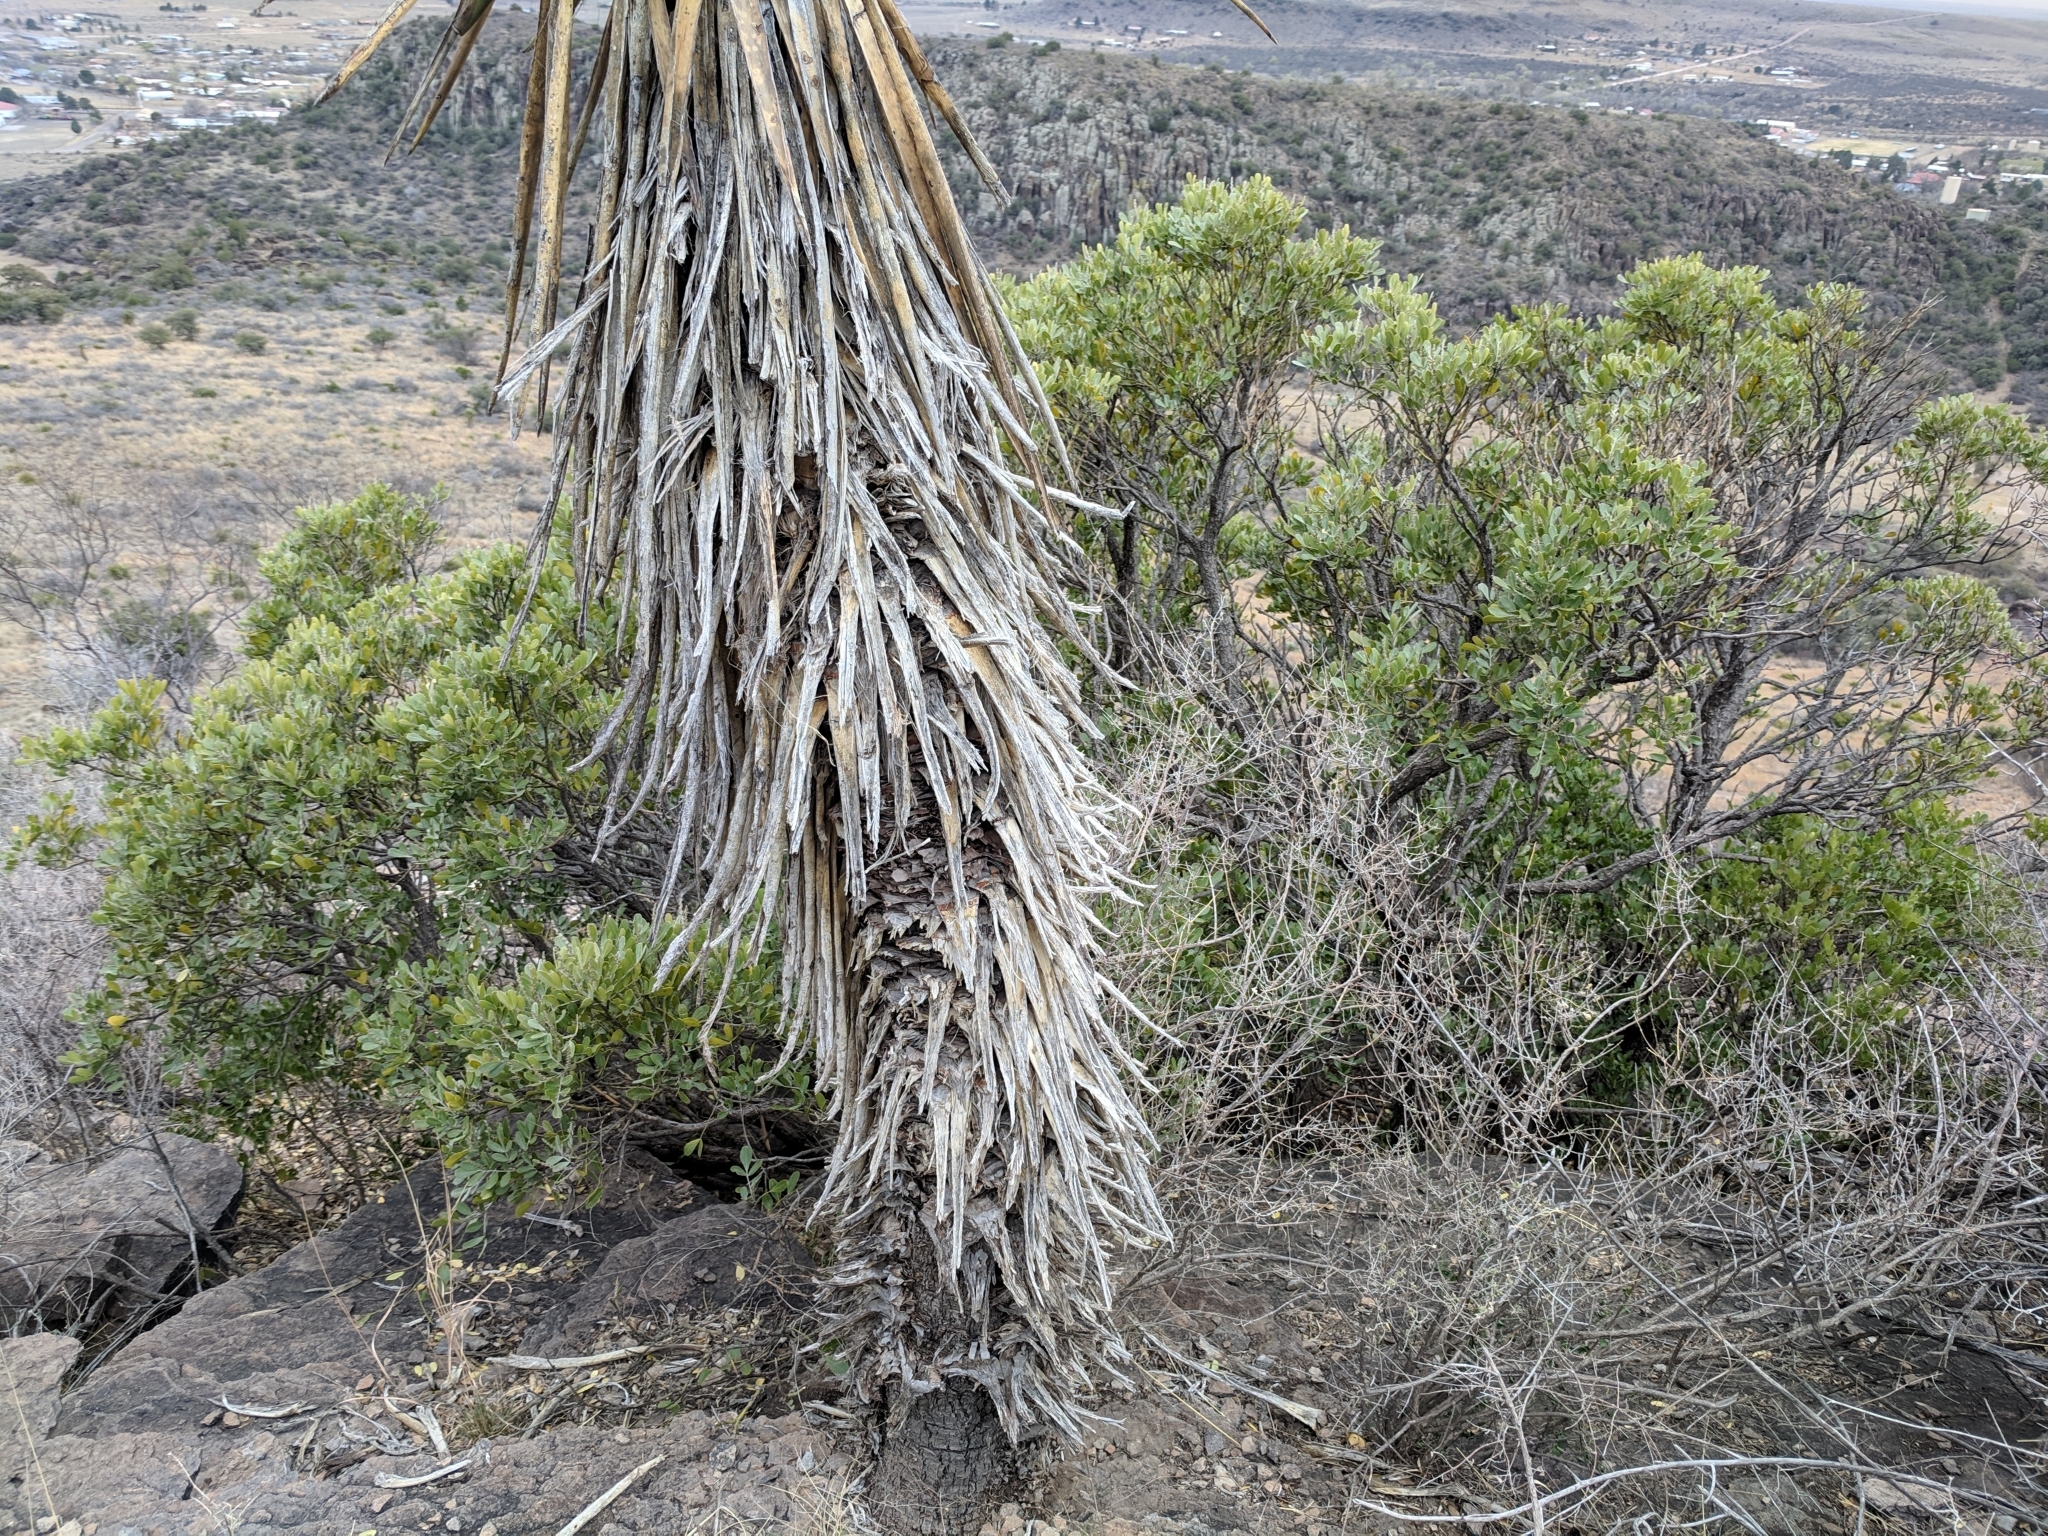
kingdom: Plantae
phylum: Tracheophyta
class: Magnoliopsida
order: Fabales
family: Fabaceae
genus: Dermatophyllum
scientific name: Dermatophyllum secundiflorum
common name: Texas-mountain-laurel
